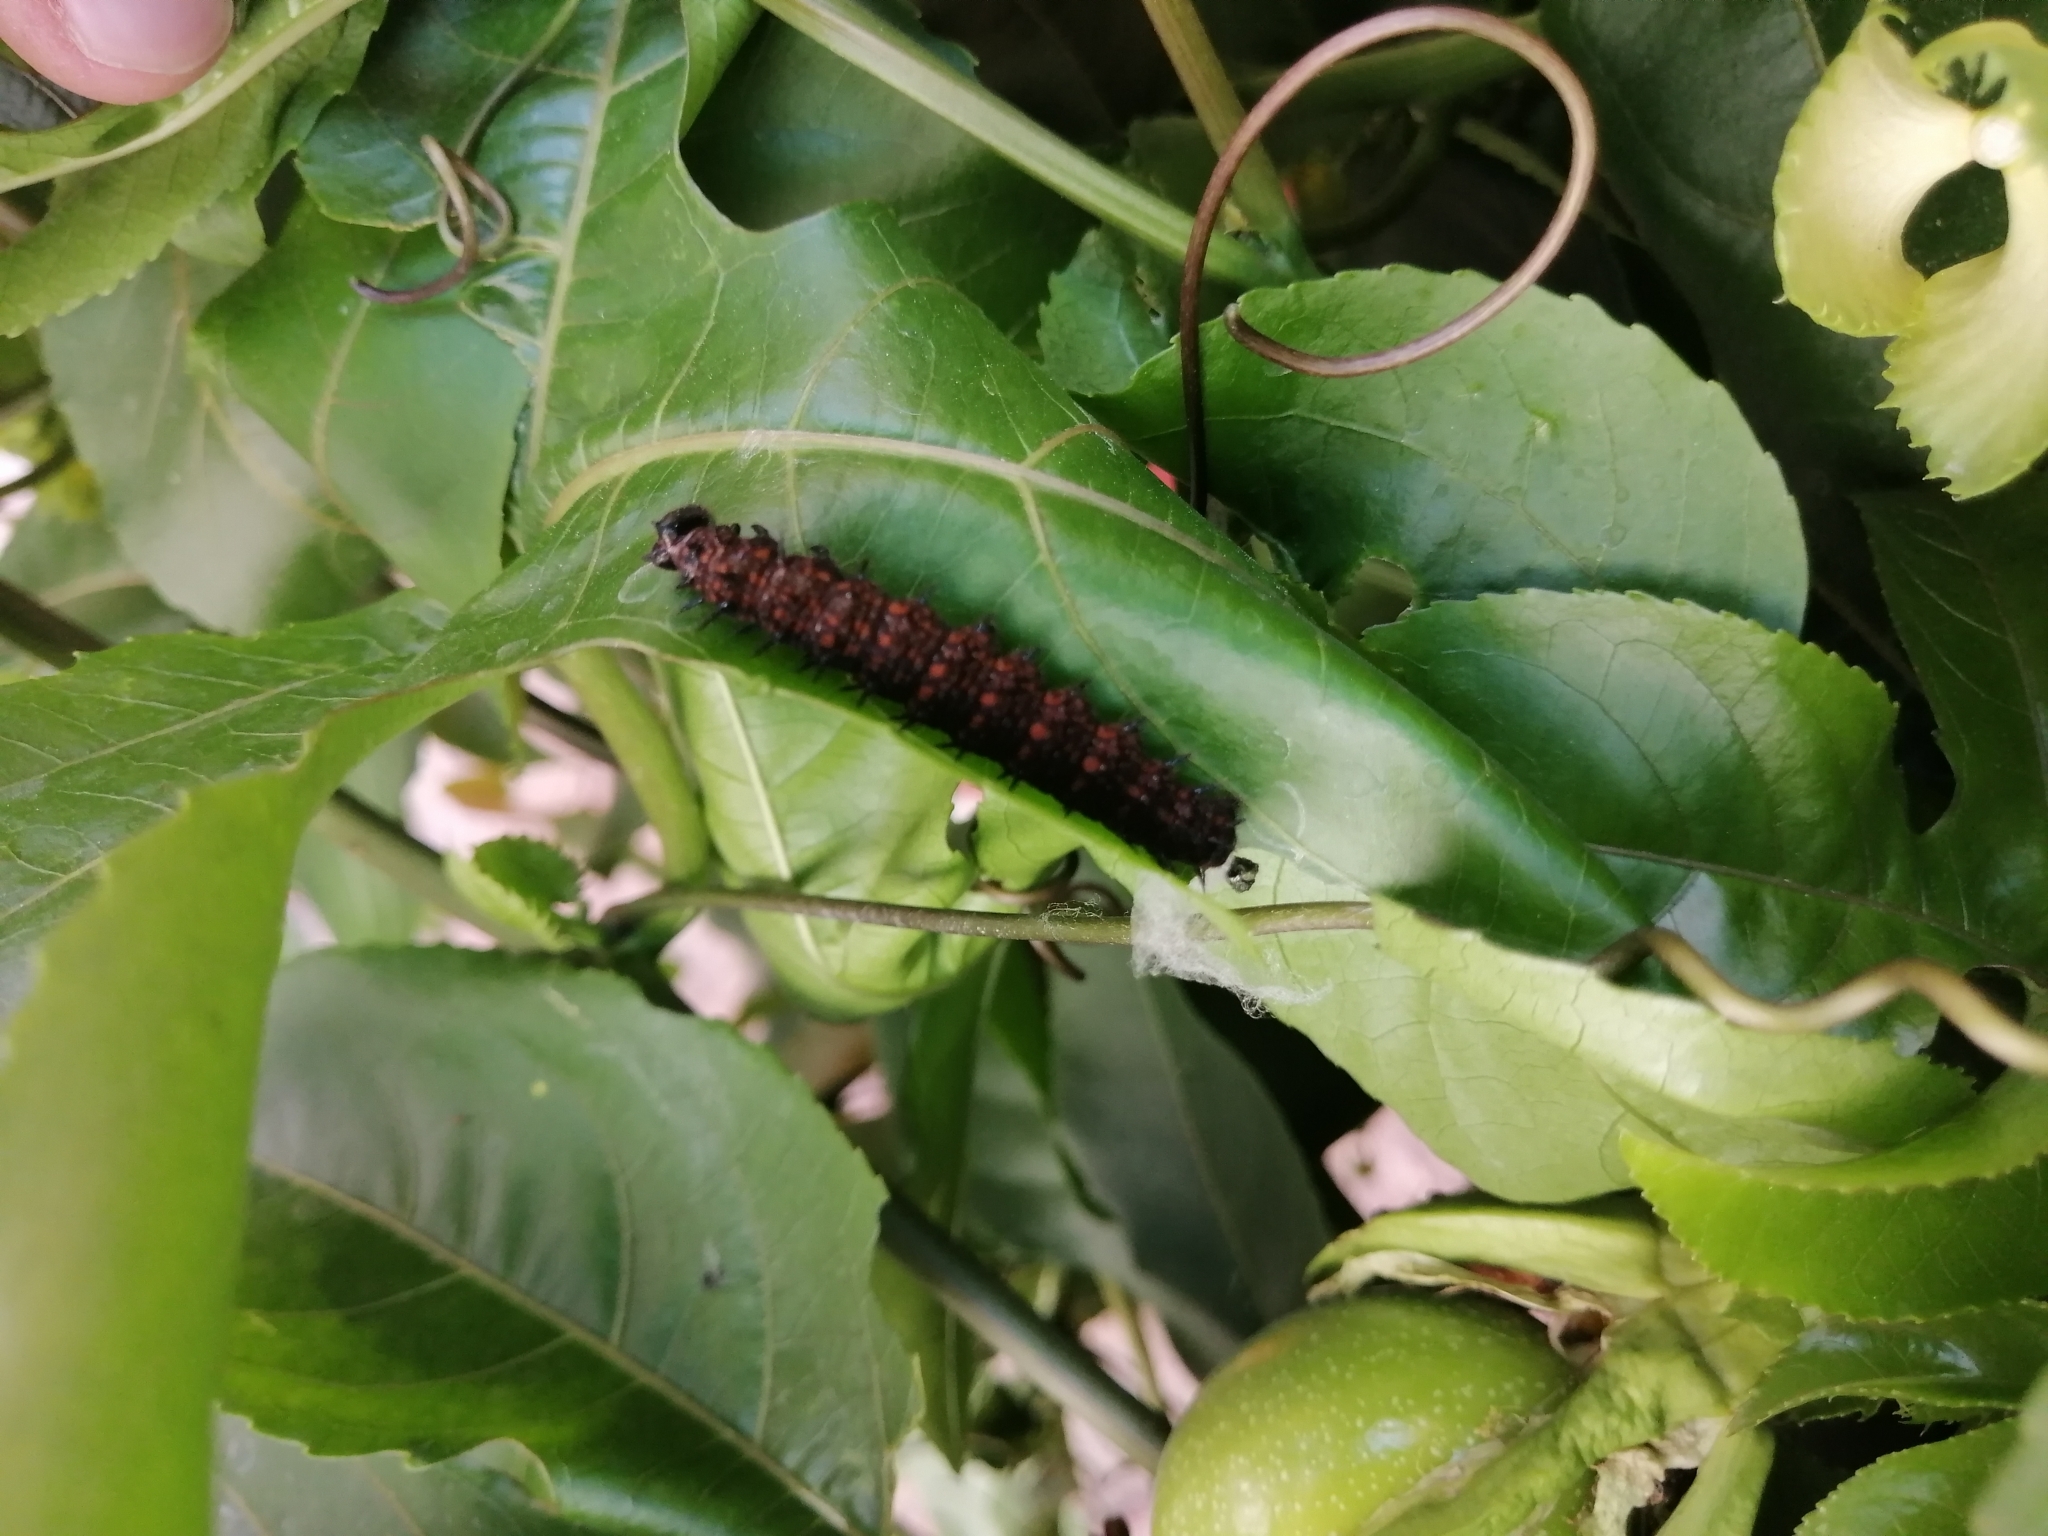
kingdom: Animalia
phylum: Arthropoda
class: Insecta
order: Lepidoptera
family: Nymphalidae
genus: Dione
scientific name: Dione juno
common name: Juno silverspot
